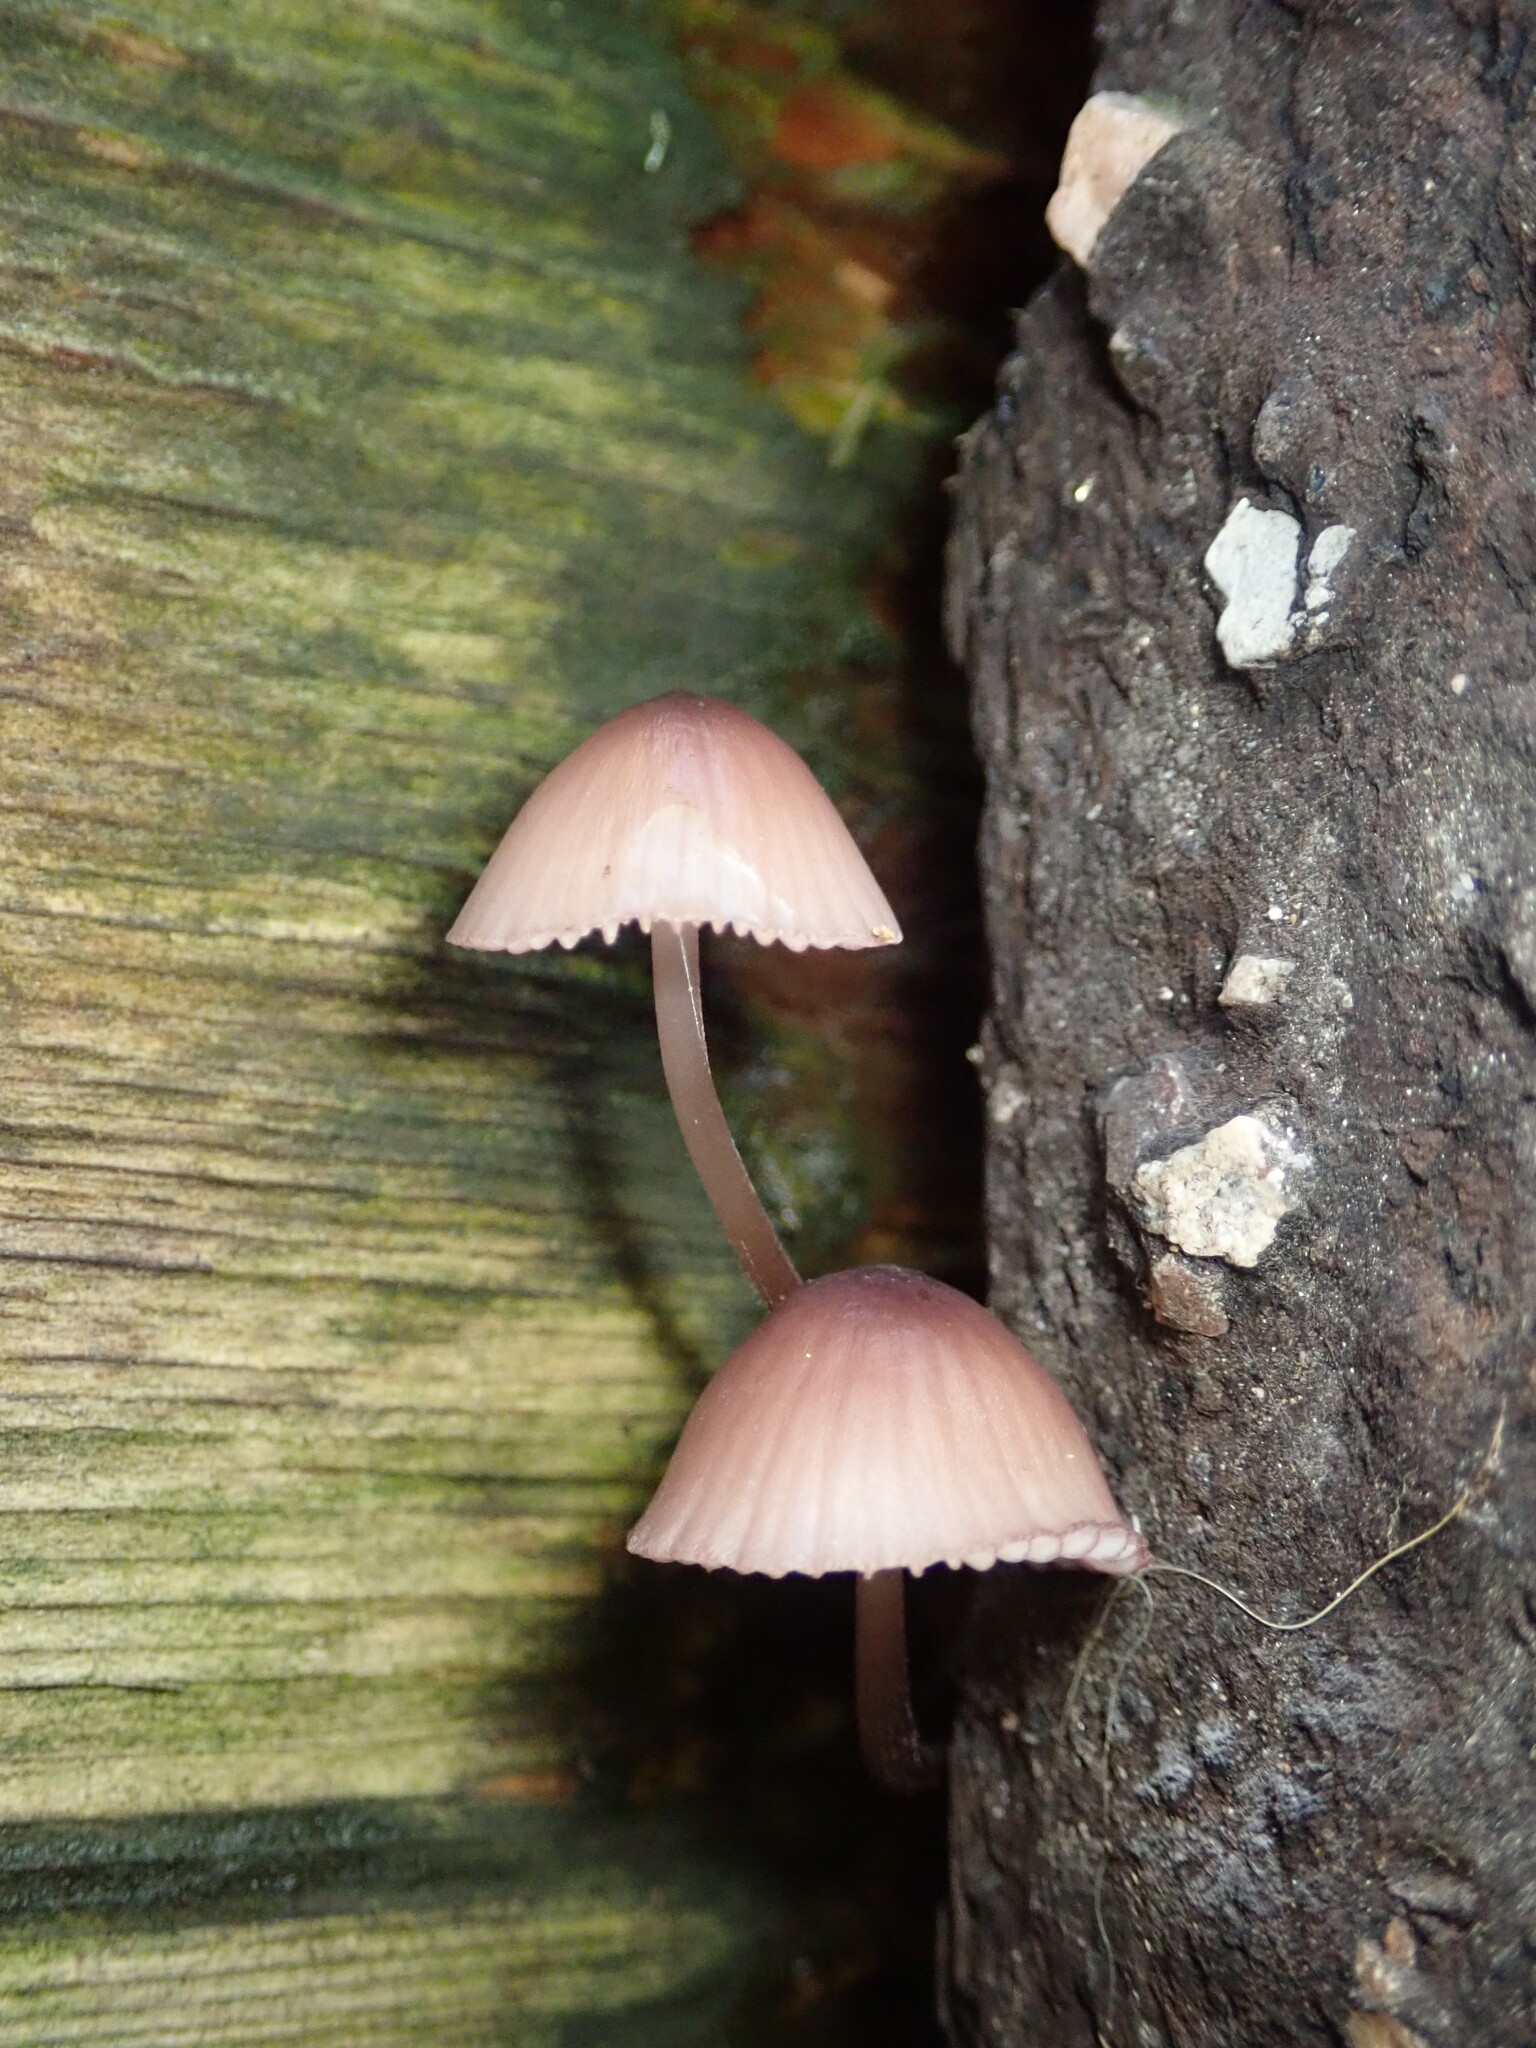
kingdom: Fungi
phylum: Basidiomycota
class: Agaricomycetes
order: Agaricales
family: Mycenaceae
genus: Mycena
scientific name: Mycena purpureofusca
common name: Purple edge bonnet
